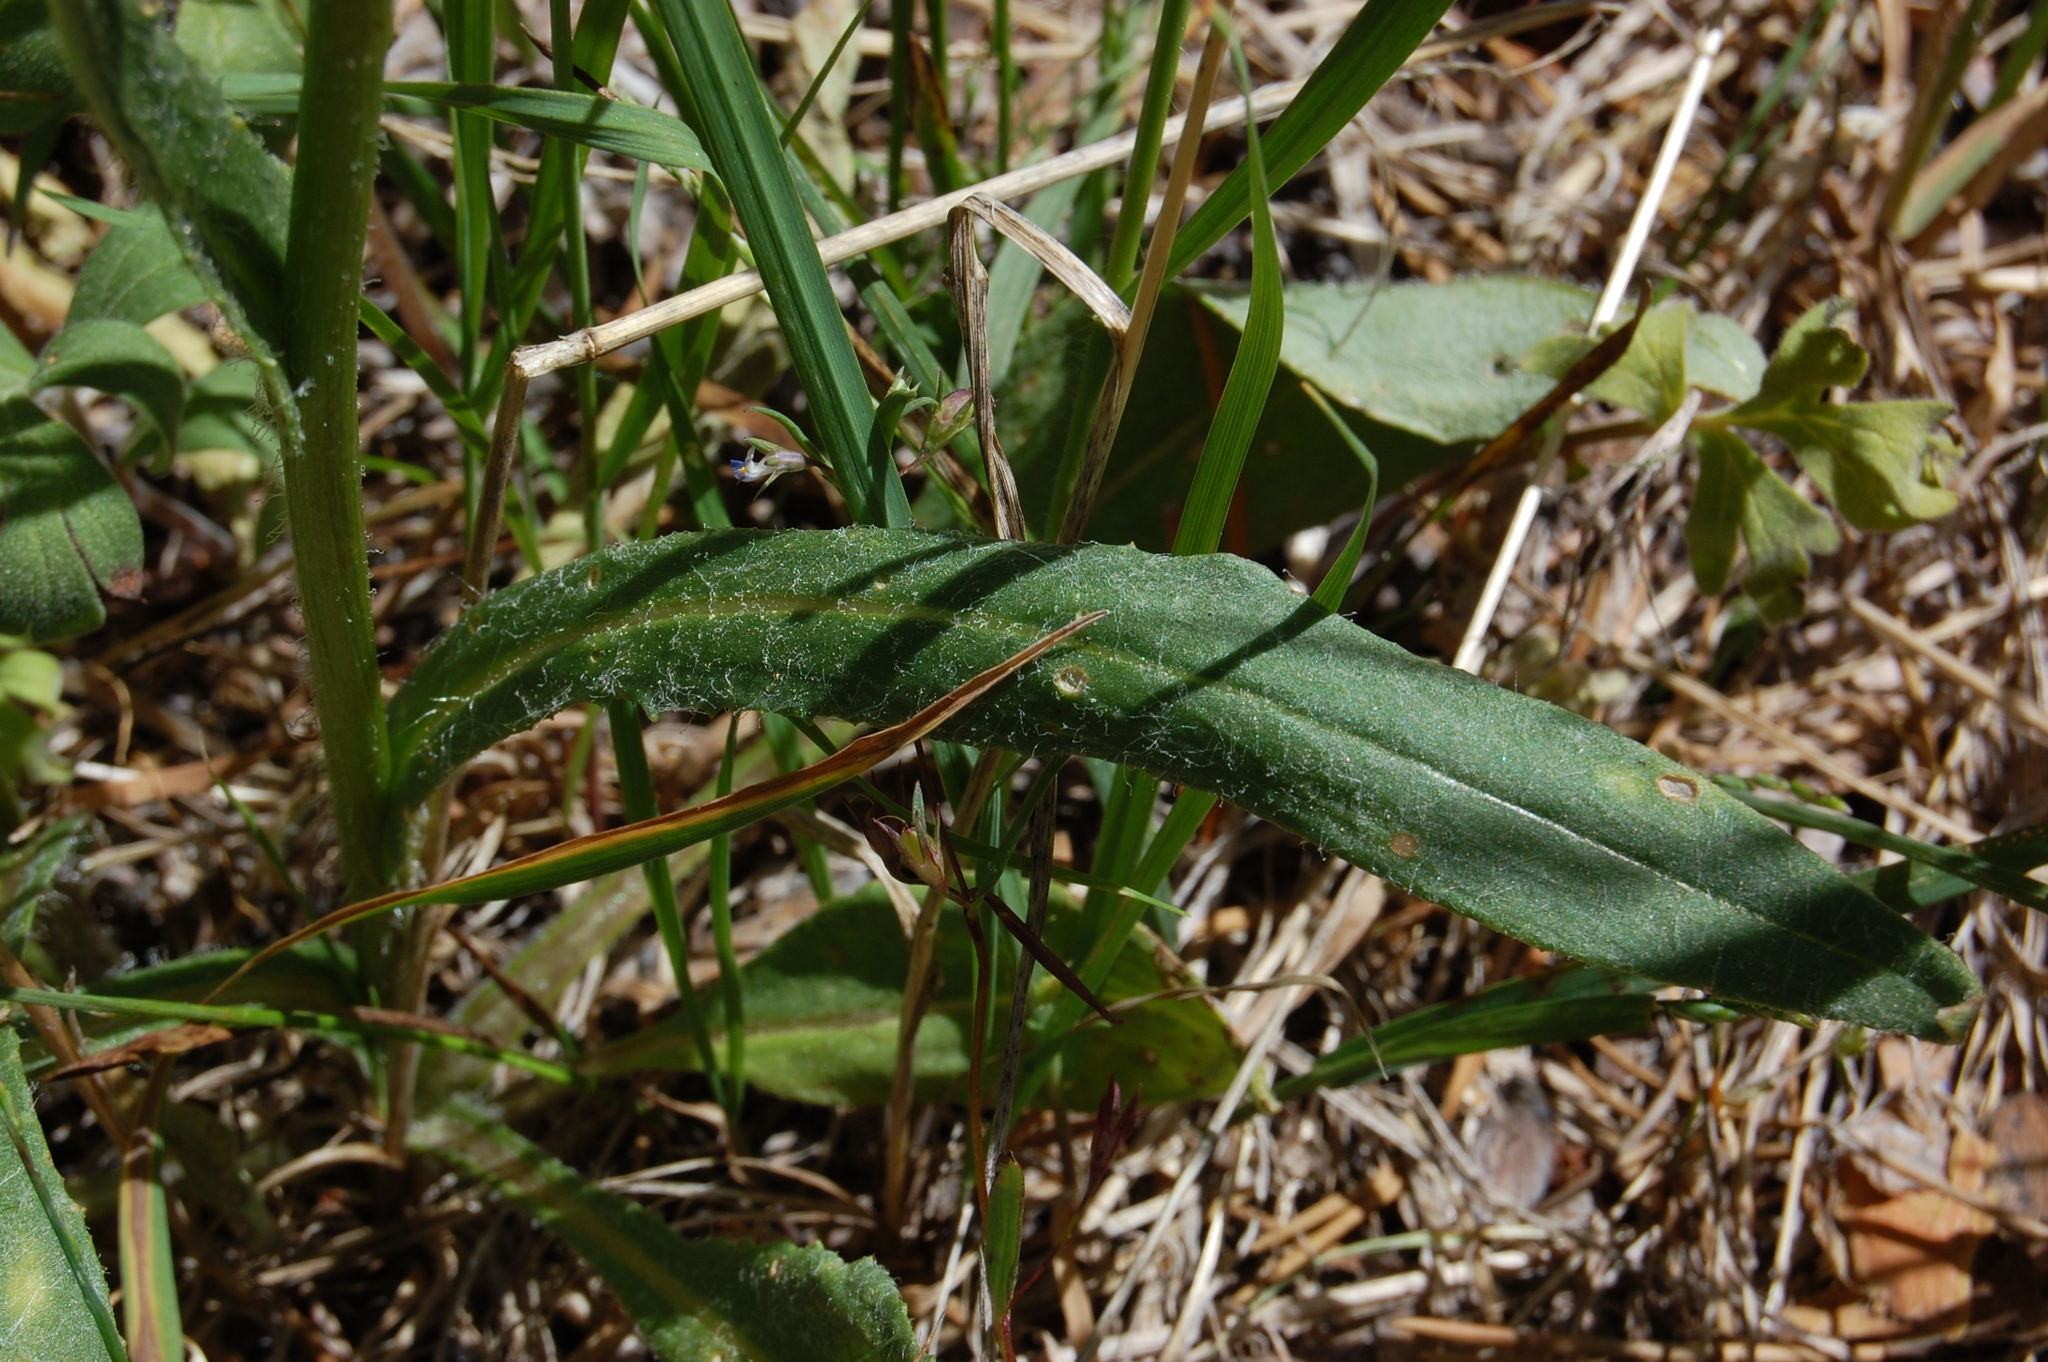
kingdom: Plantae
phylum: Tracheophyta
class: Magnoliopsida
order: Asterales
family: Asteraceae
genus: Senecio
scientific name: Senecio integerrimus
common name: Gaugeplant
